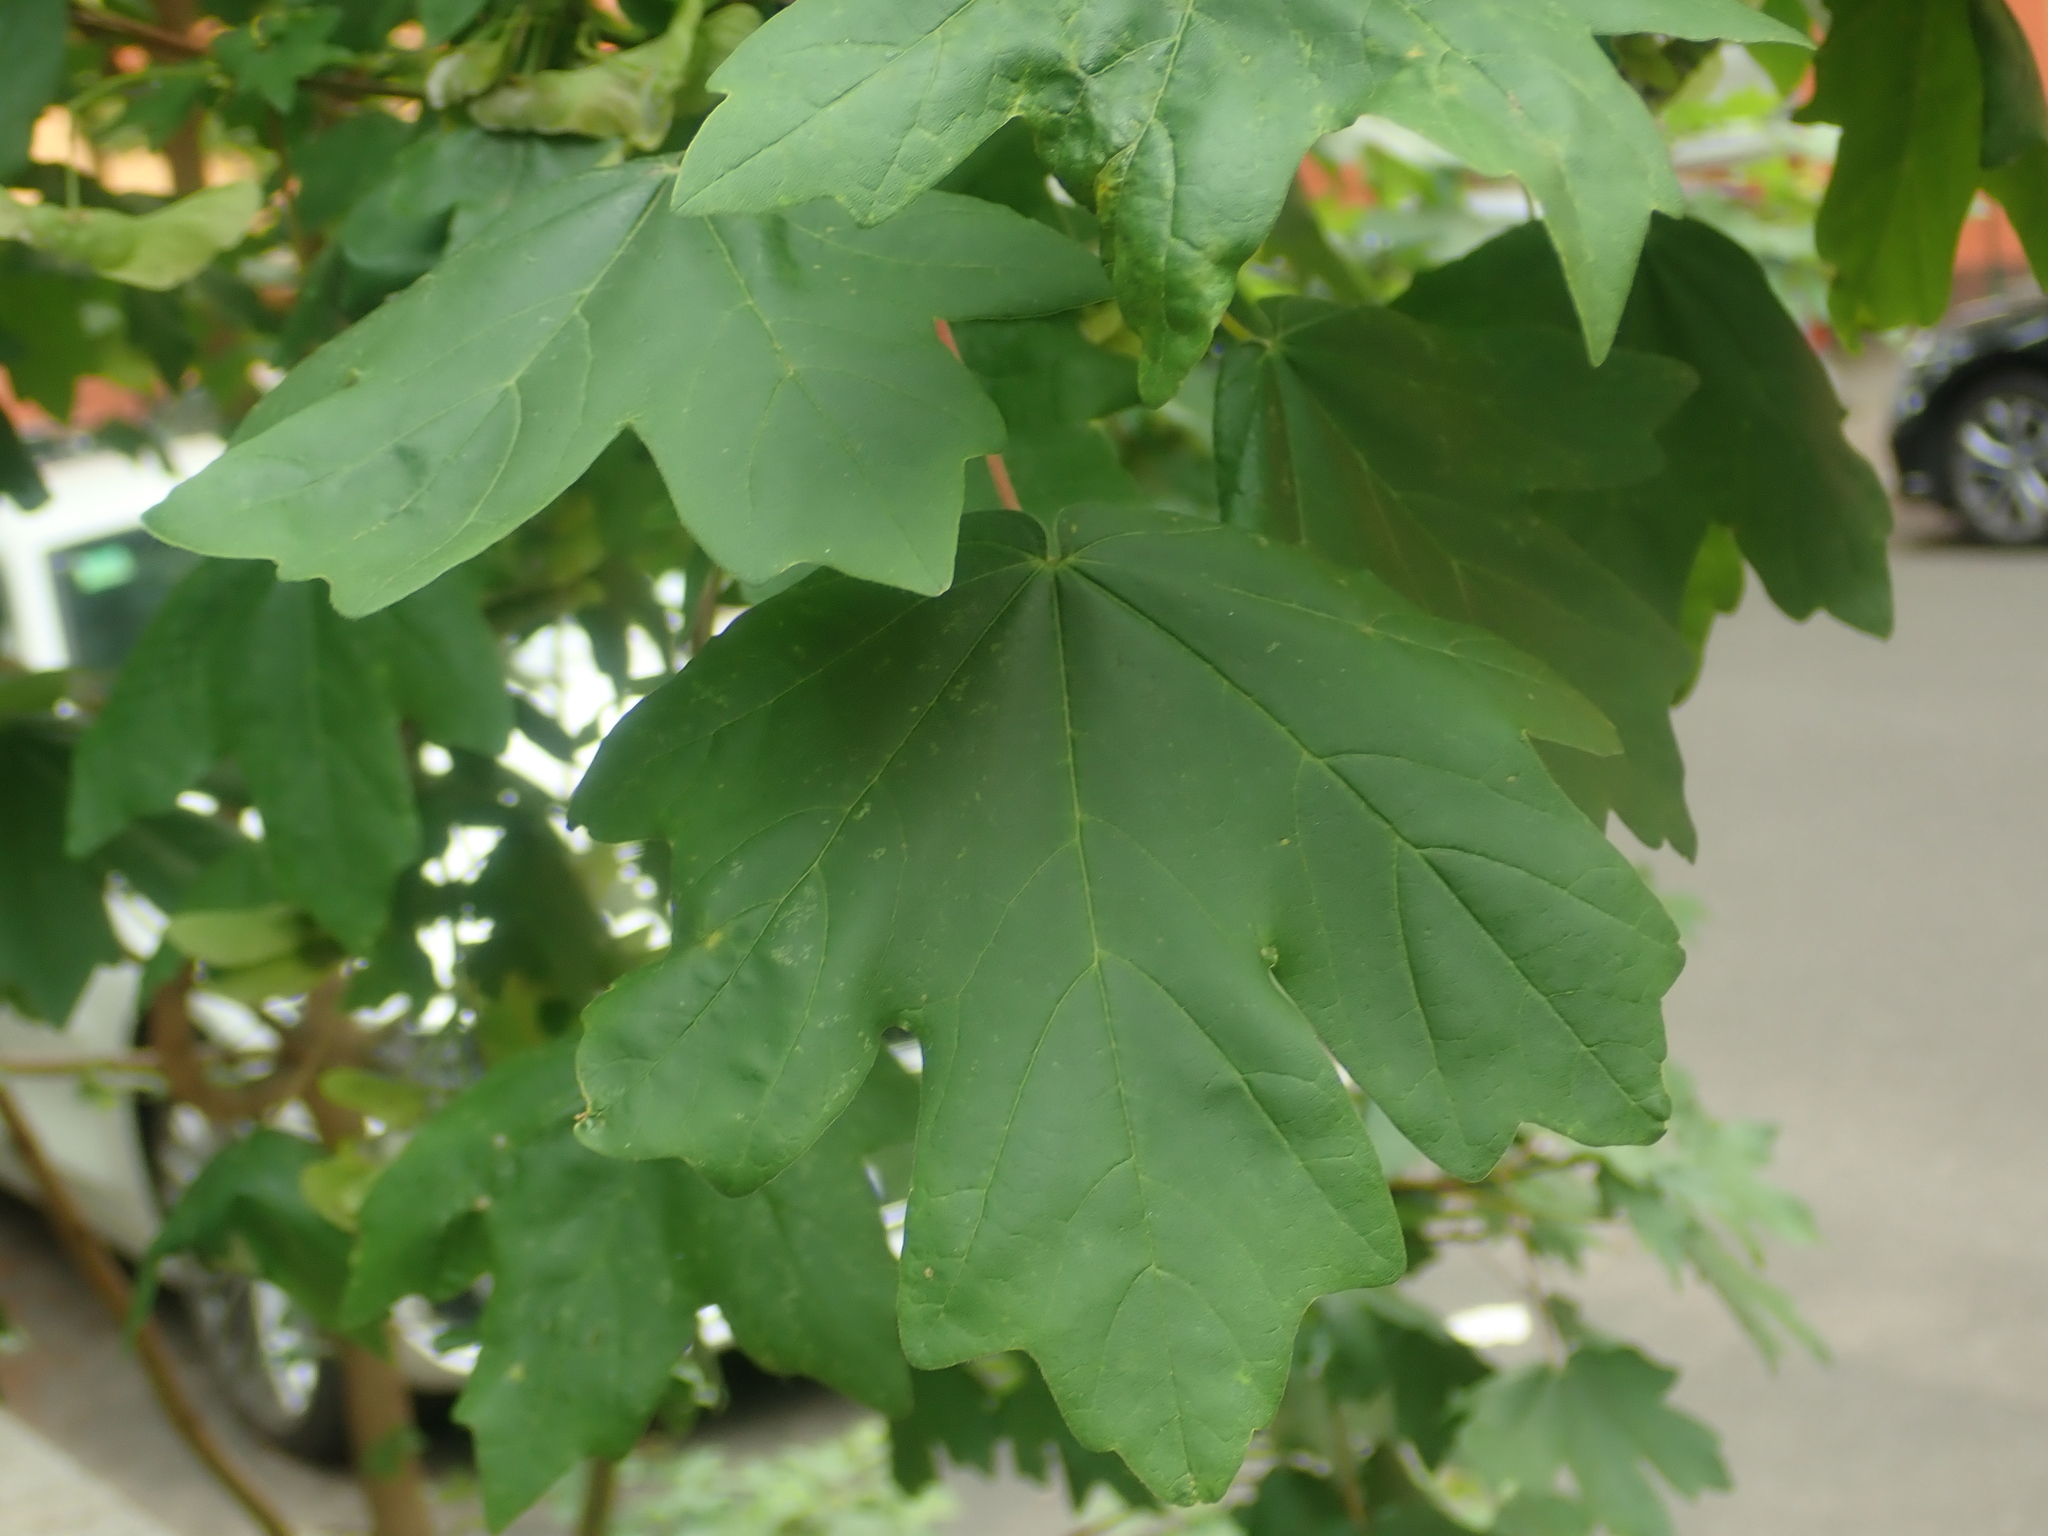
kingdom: Plantae
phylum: Tracheophyta
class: Magnoliopsida
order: Sapindales
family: Sapindaceae
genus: Acer
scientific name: Acer campestre
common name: Field maple
